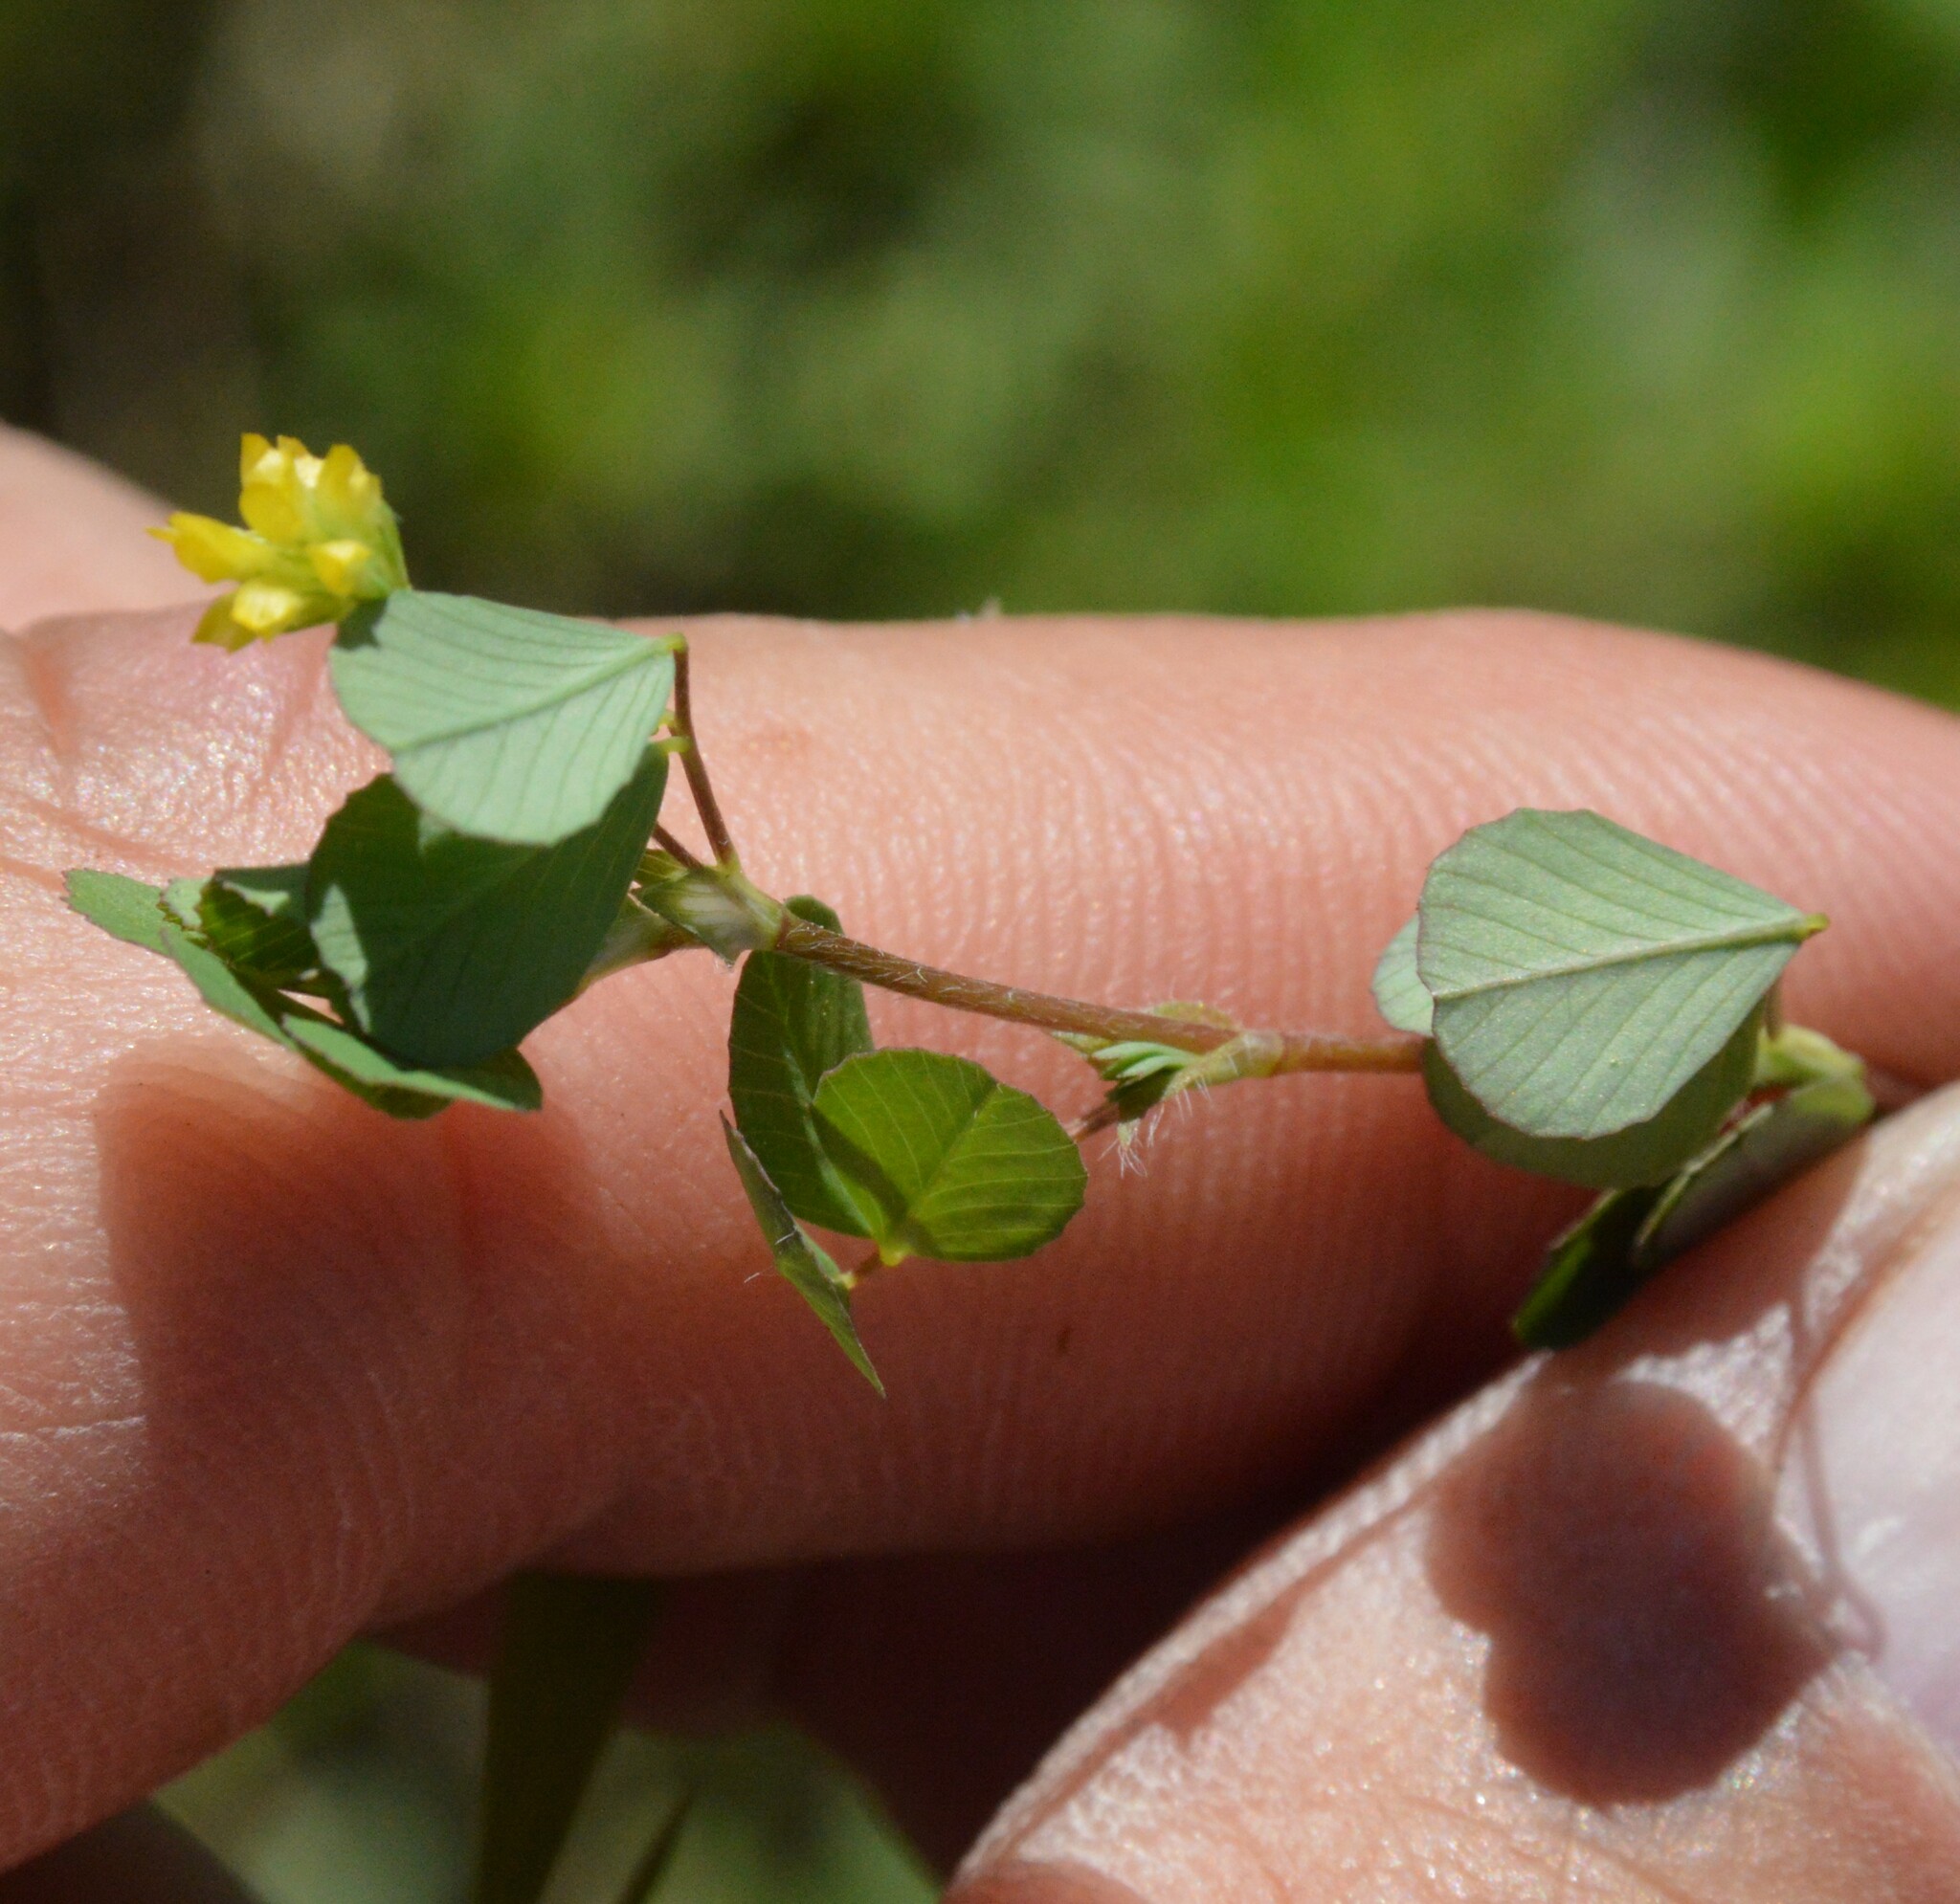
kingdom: Plantae
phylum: Tracheophyta
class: Magnoliopsida
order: Fabales
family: Fabaceae
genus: Trifolium
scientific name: Trifolium dubium
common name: Suckling clover
